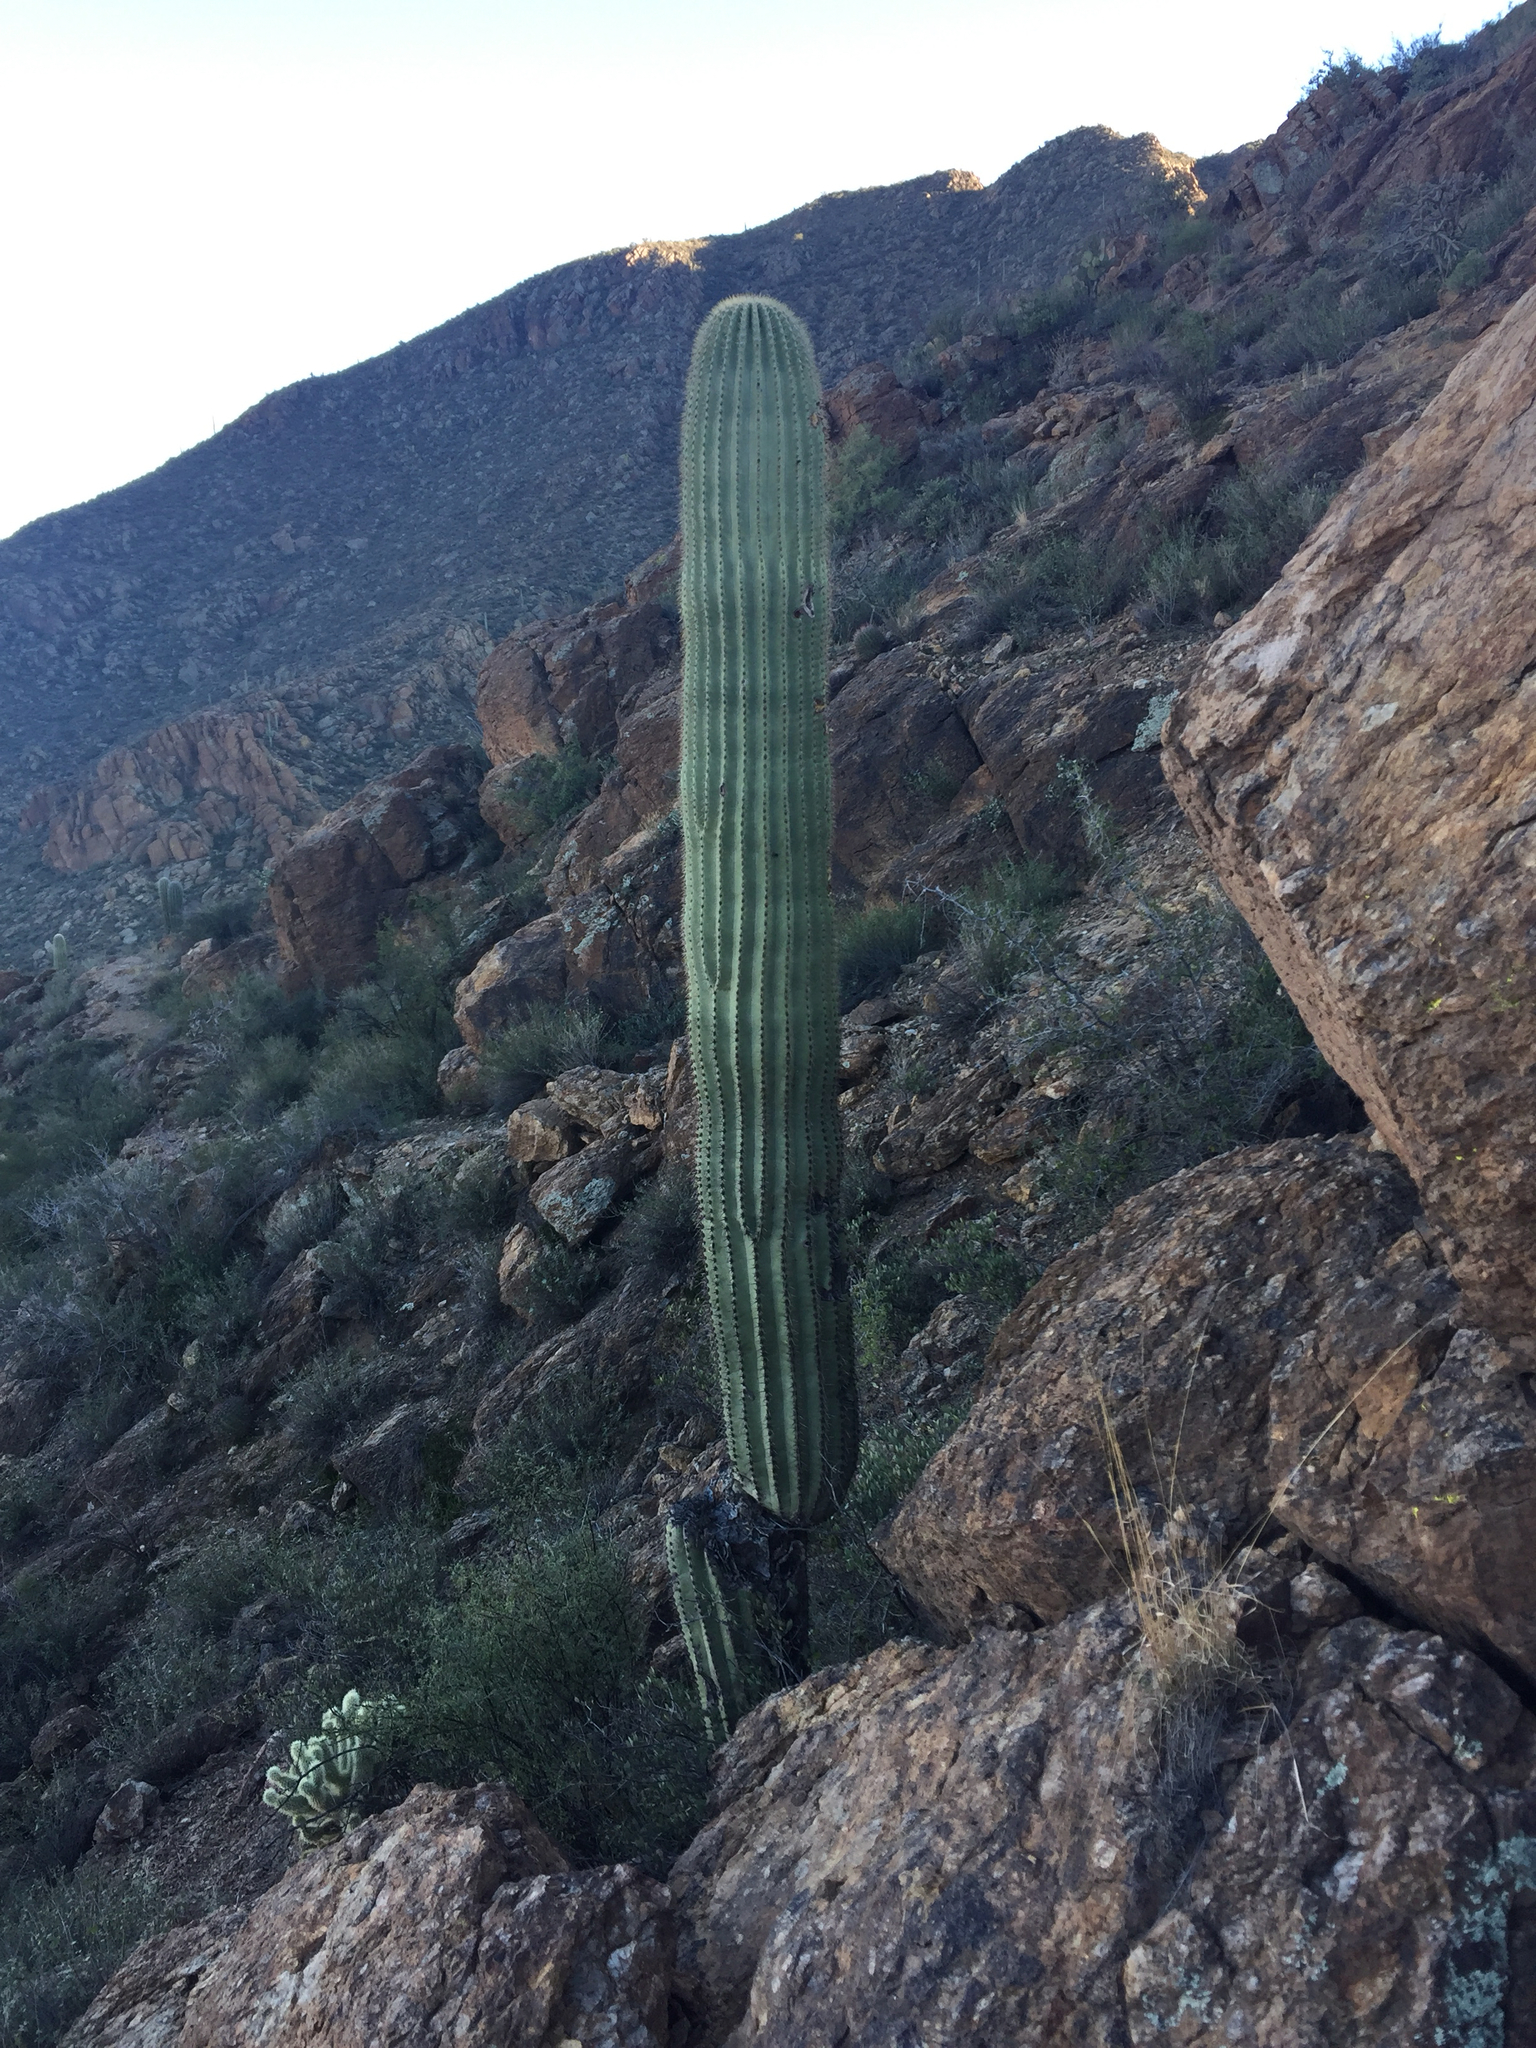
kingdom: Plantae
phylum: Tracheophyta
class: Magnoliopsida
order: Caryophyllales
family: Cactaceae
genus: Carnegiea
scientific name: Carnegiea gigantea
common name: Saguaro
